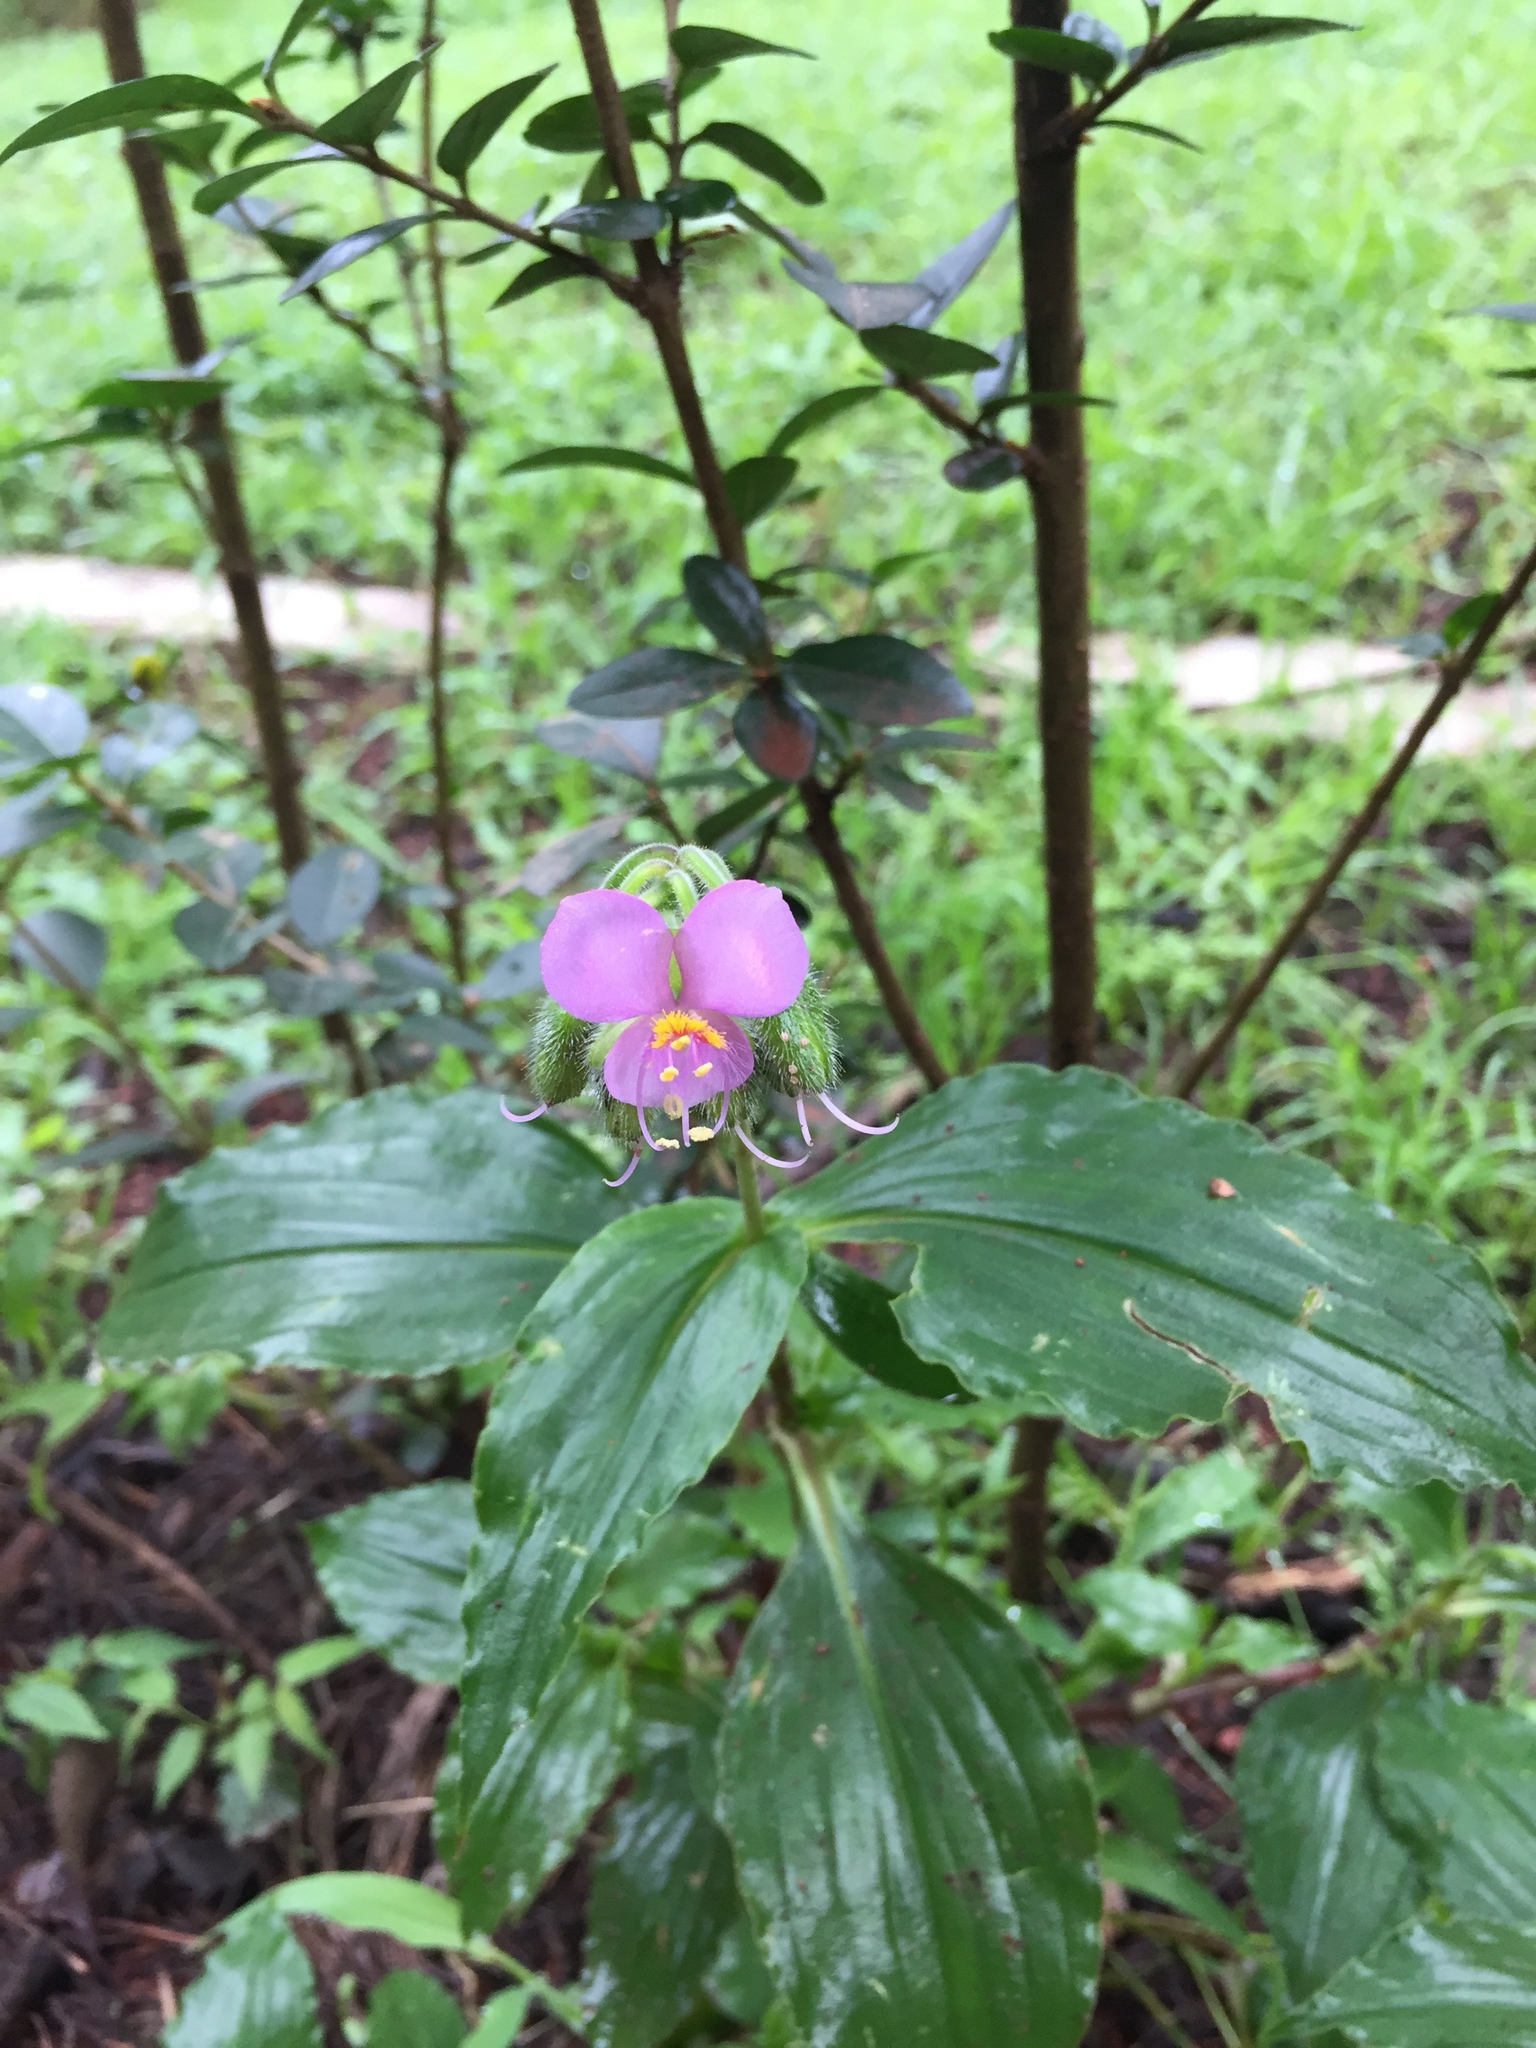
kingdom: Plantae
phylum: Tracheophyta
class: Liliopsida
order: Commelinales
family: Commelinaceae
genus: Tinantia
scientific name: Tinantia erecta
